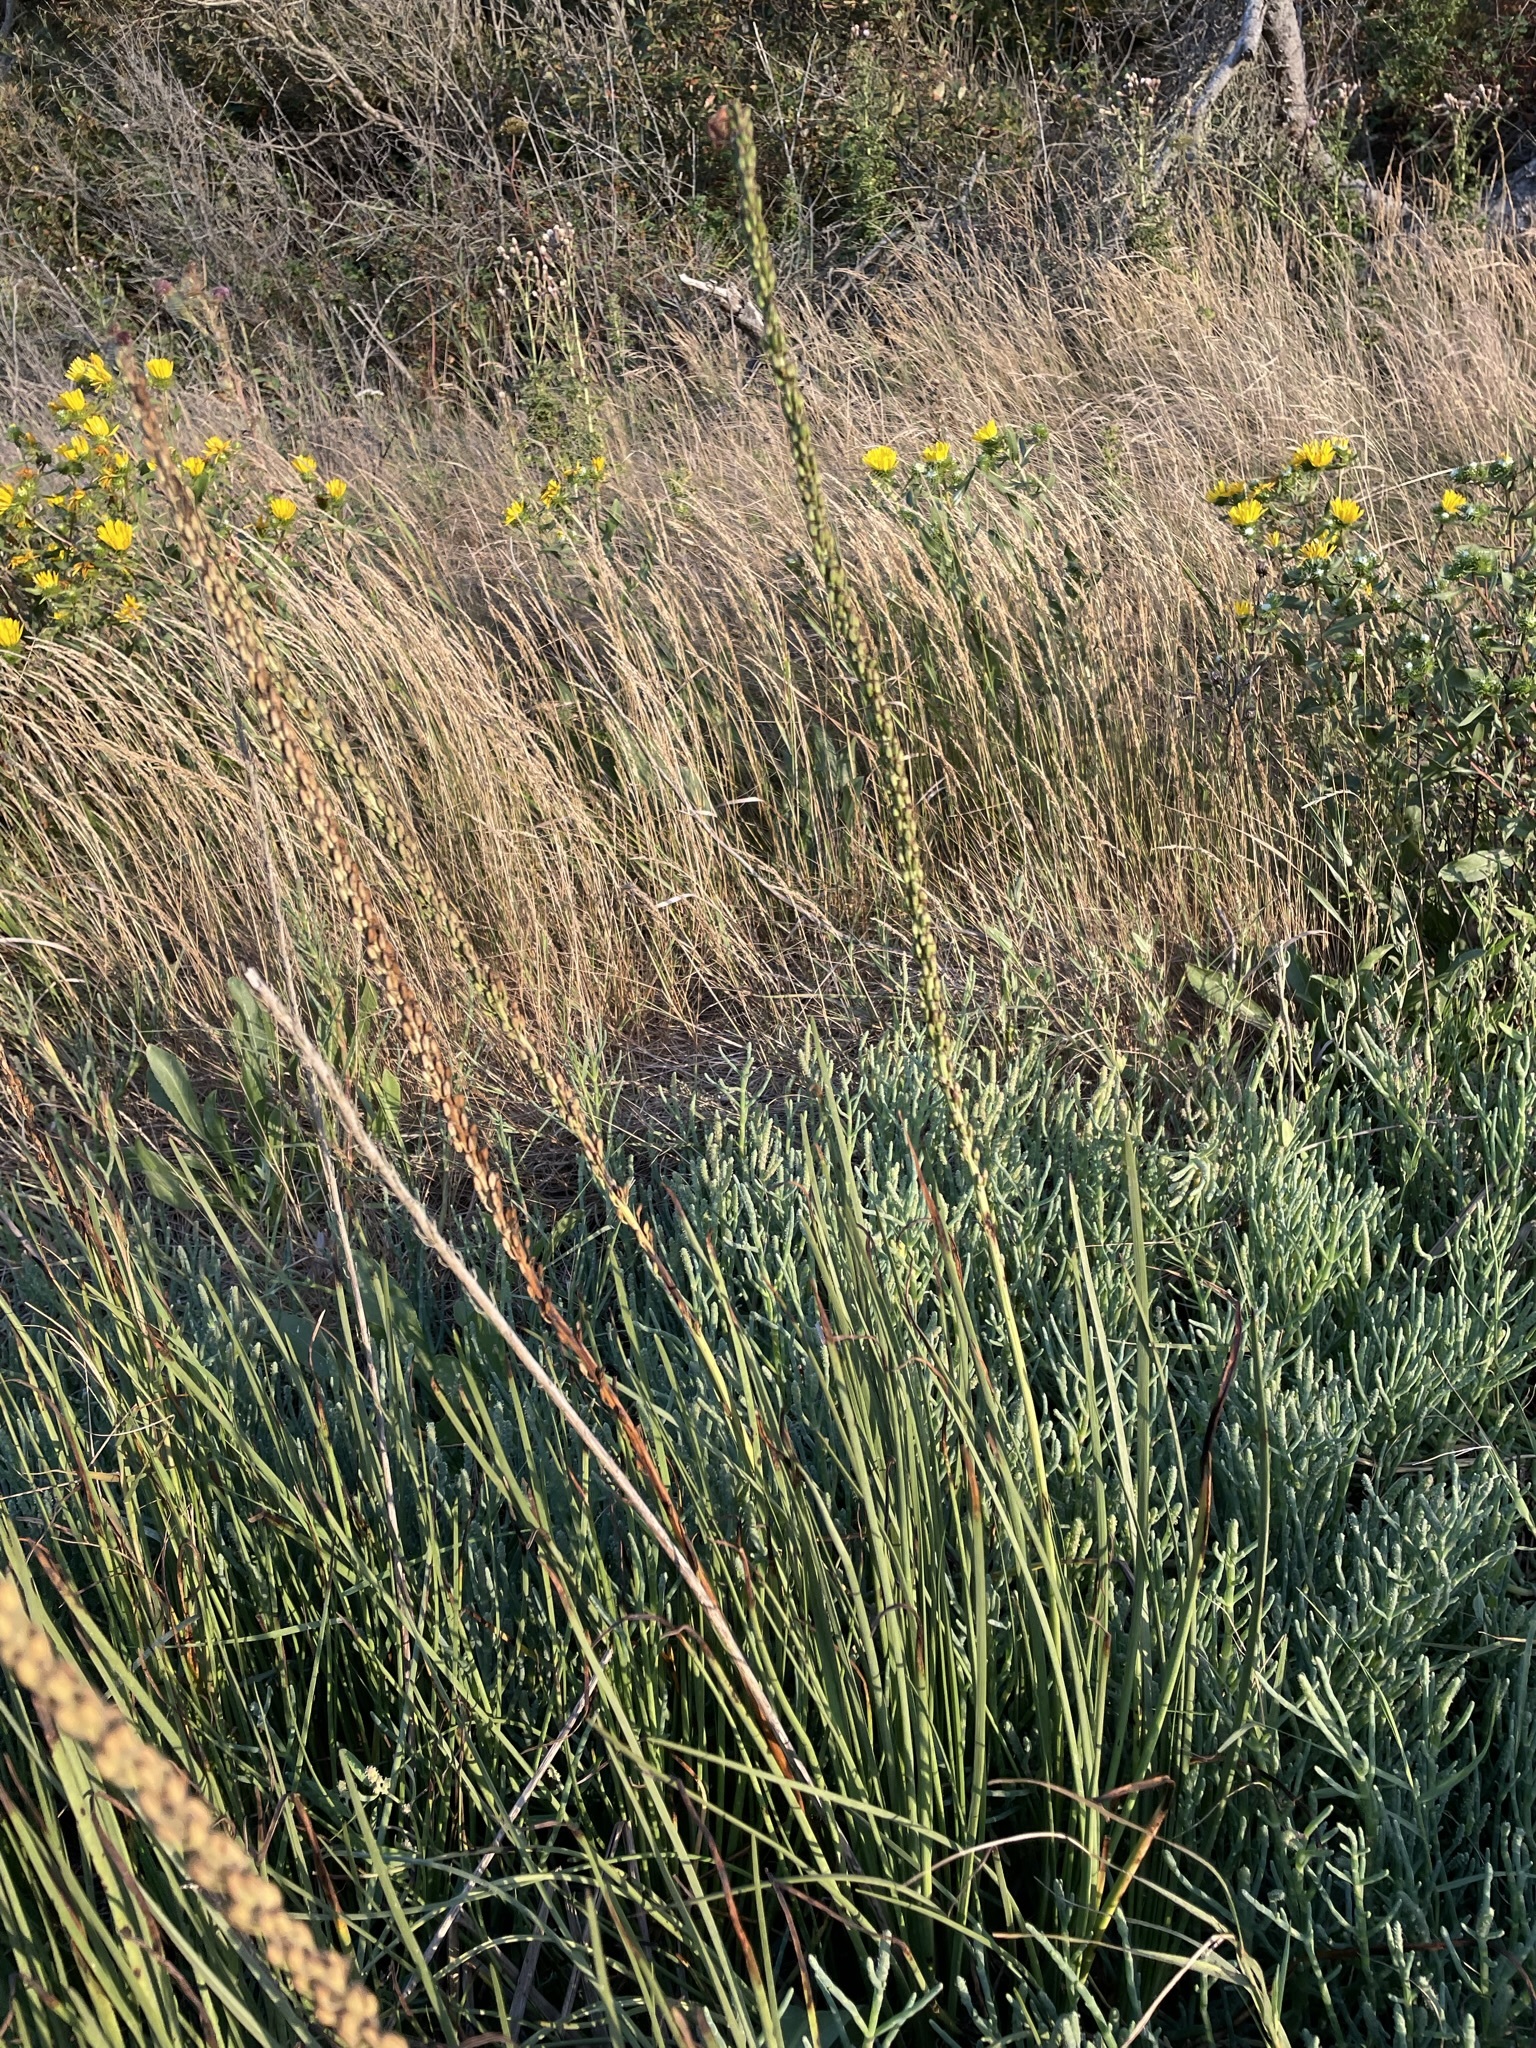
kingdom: Plantae
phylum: Tracheophyta
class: Liliopsida
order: Alismatales
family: Juncaginaceae
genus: Triglochin
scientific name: Triglochin maritima
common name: Sea arrowgrass
